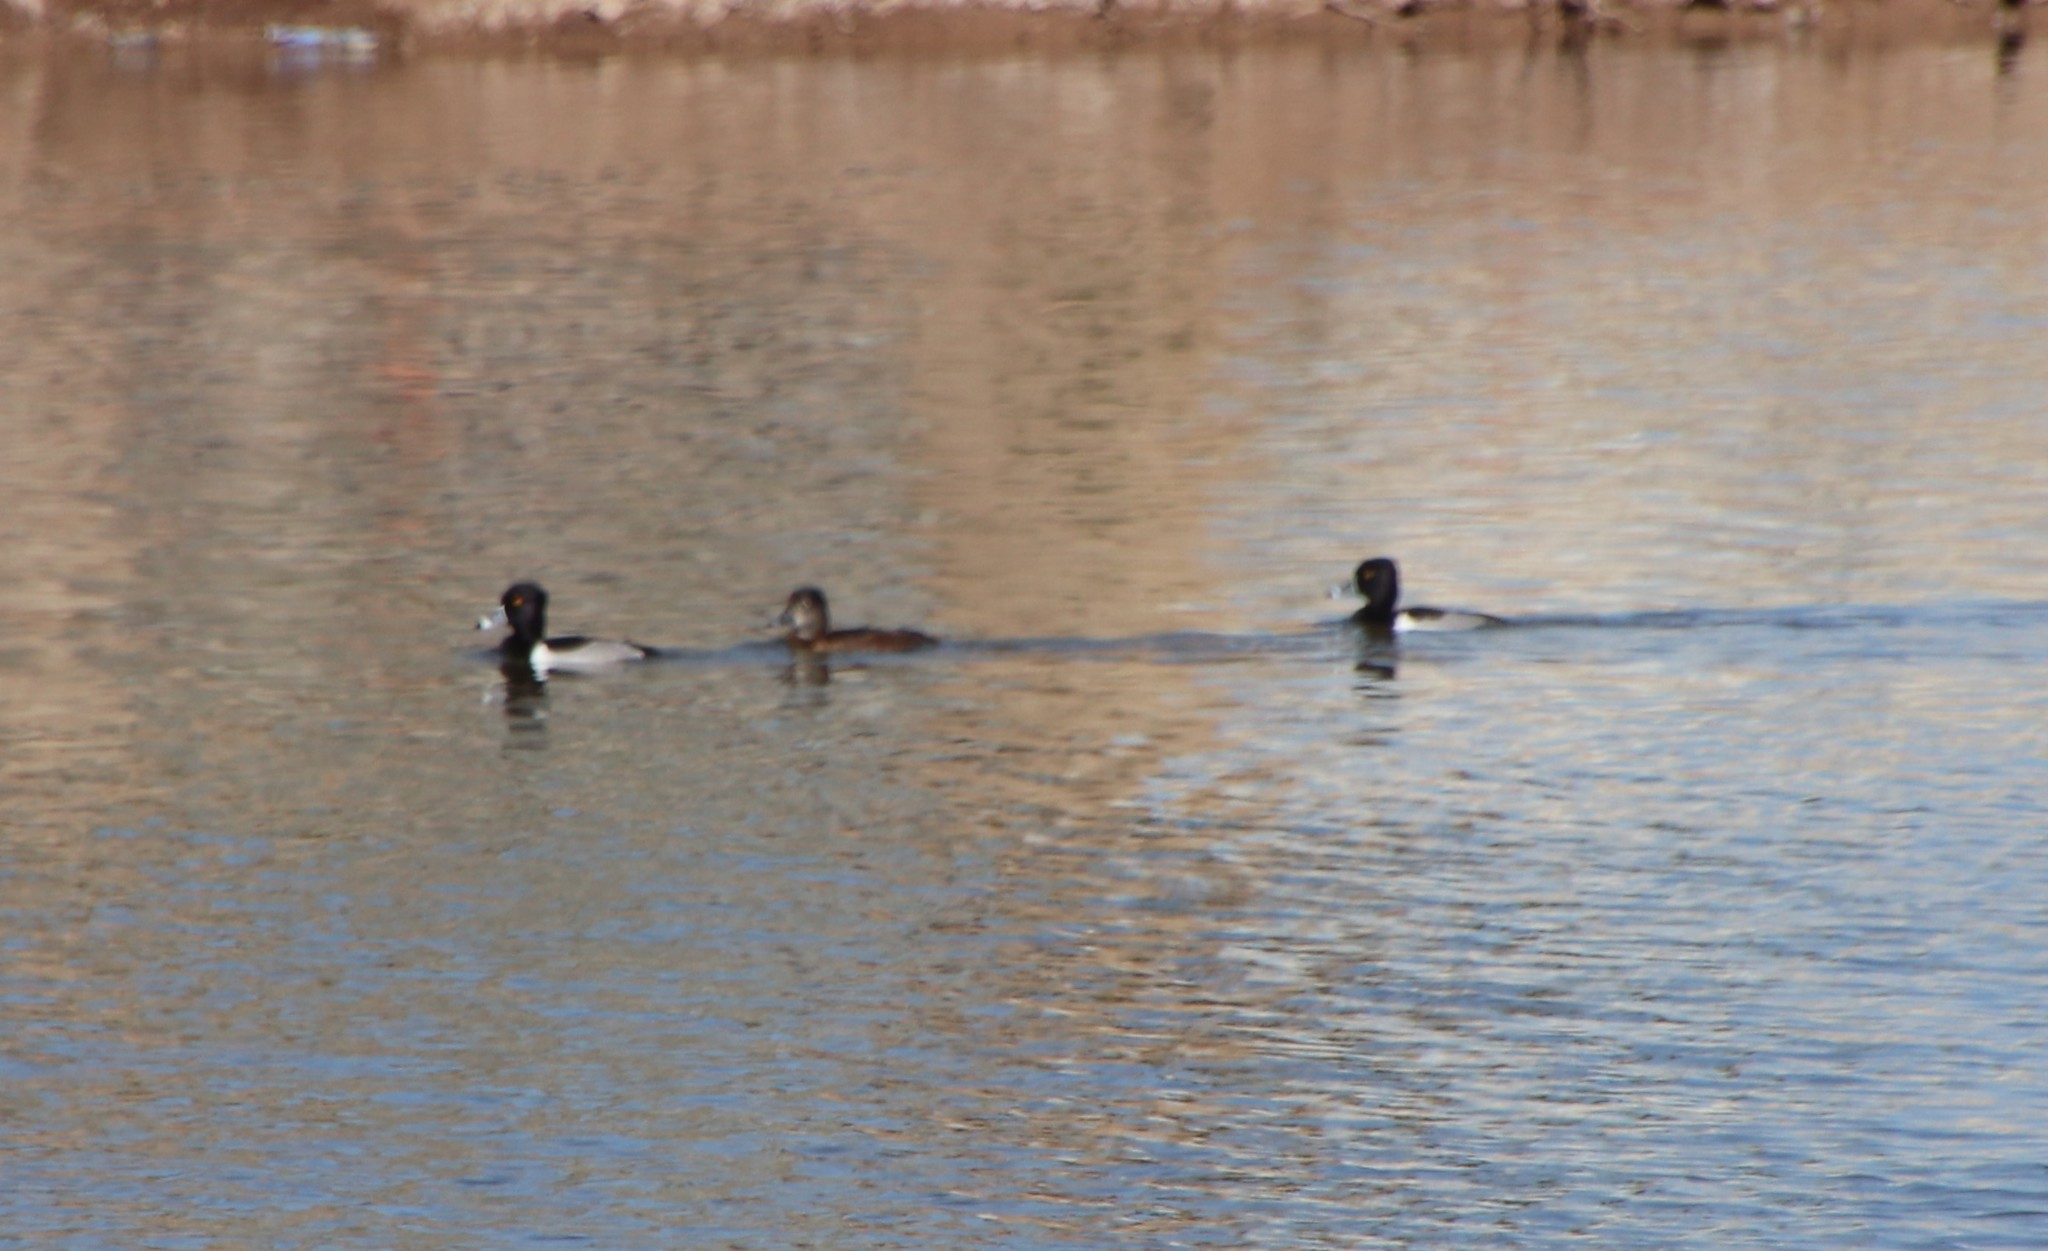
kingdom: Animalia
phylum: Chordata
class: Aves
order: Anseriformes
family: Anatidae
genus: Aythya
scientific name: Aythya collaris
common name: Ring-necked duck
